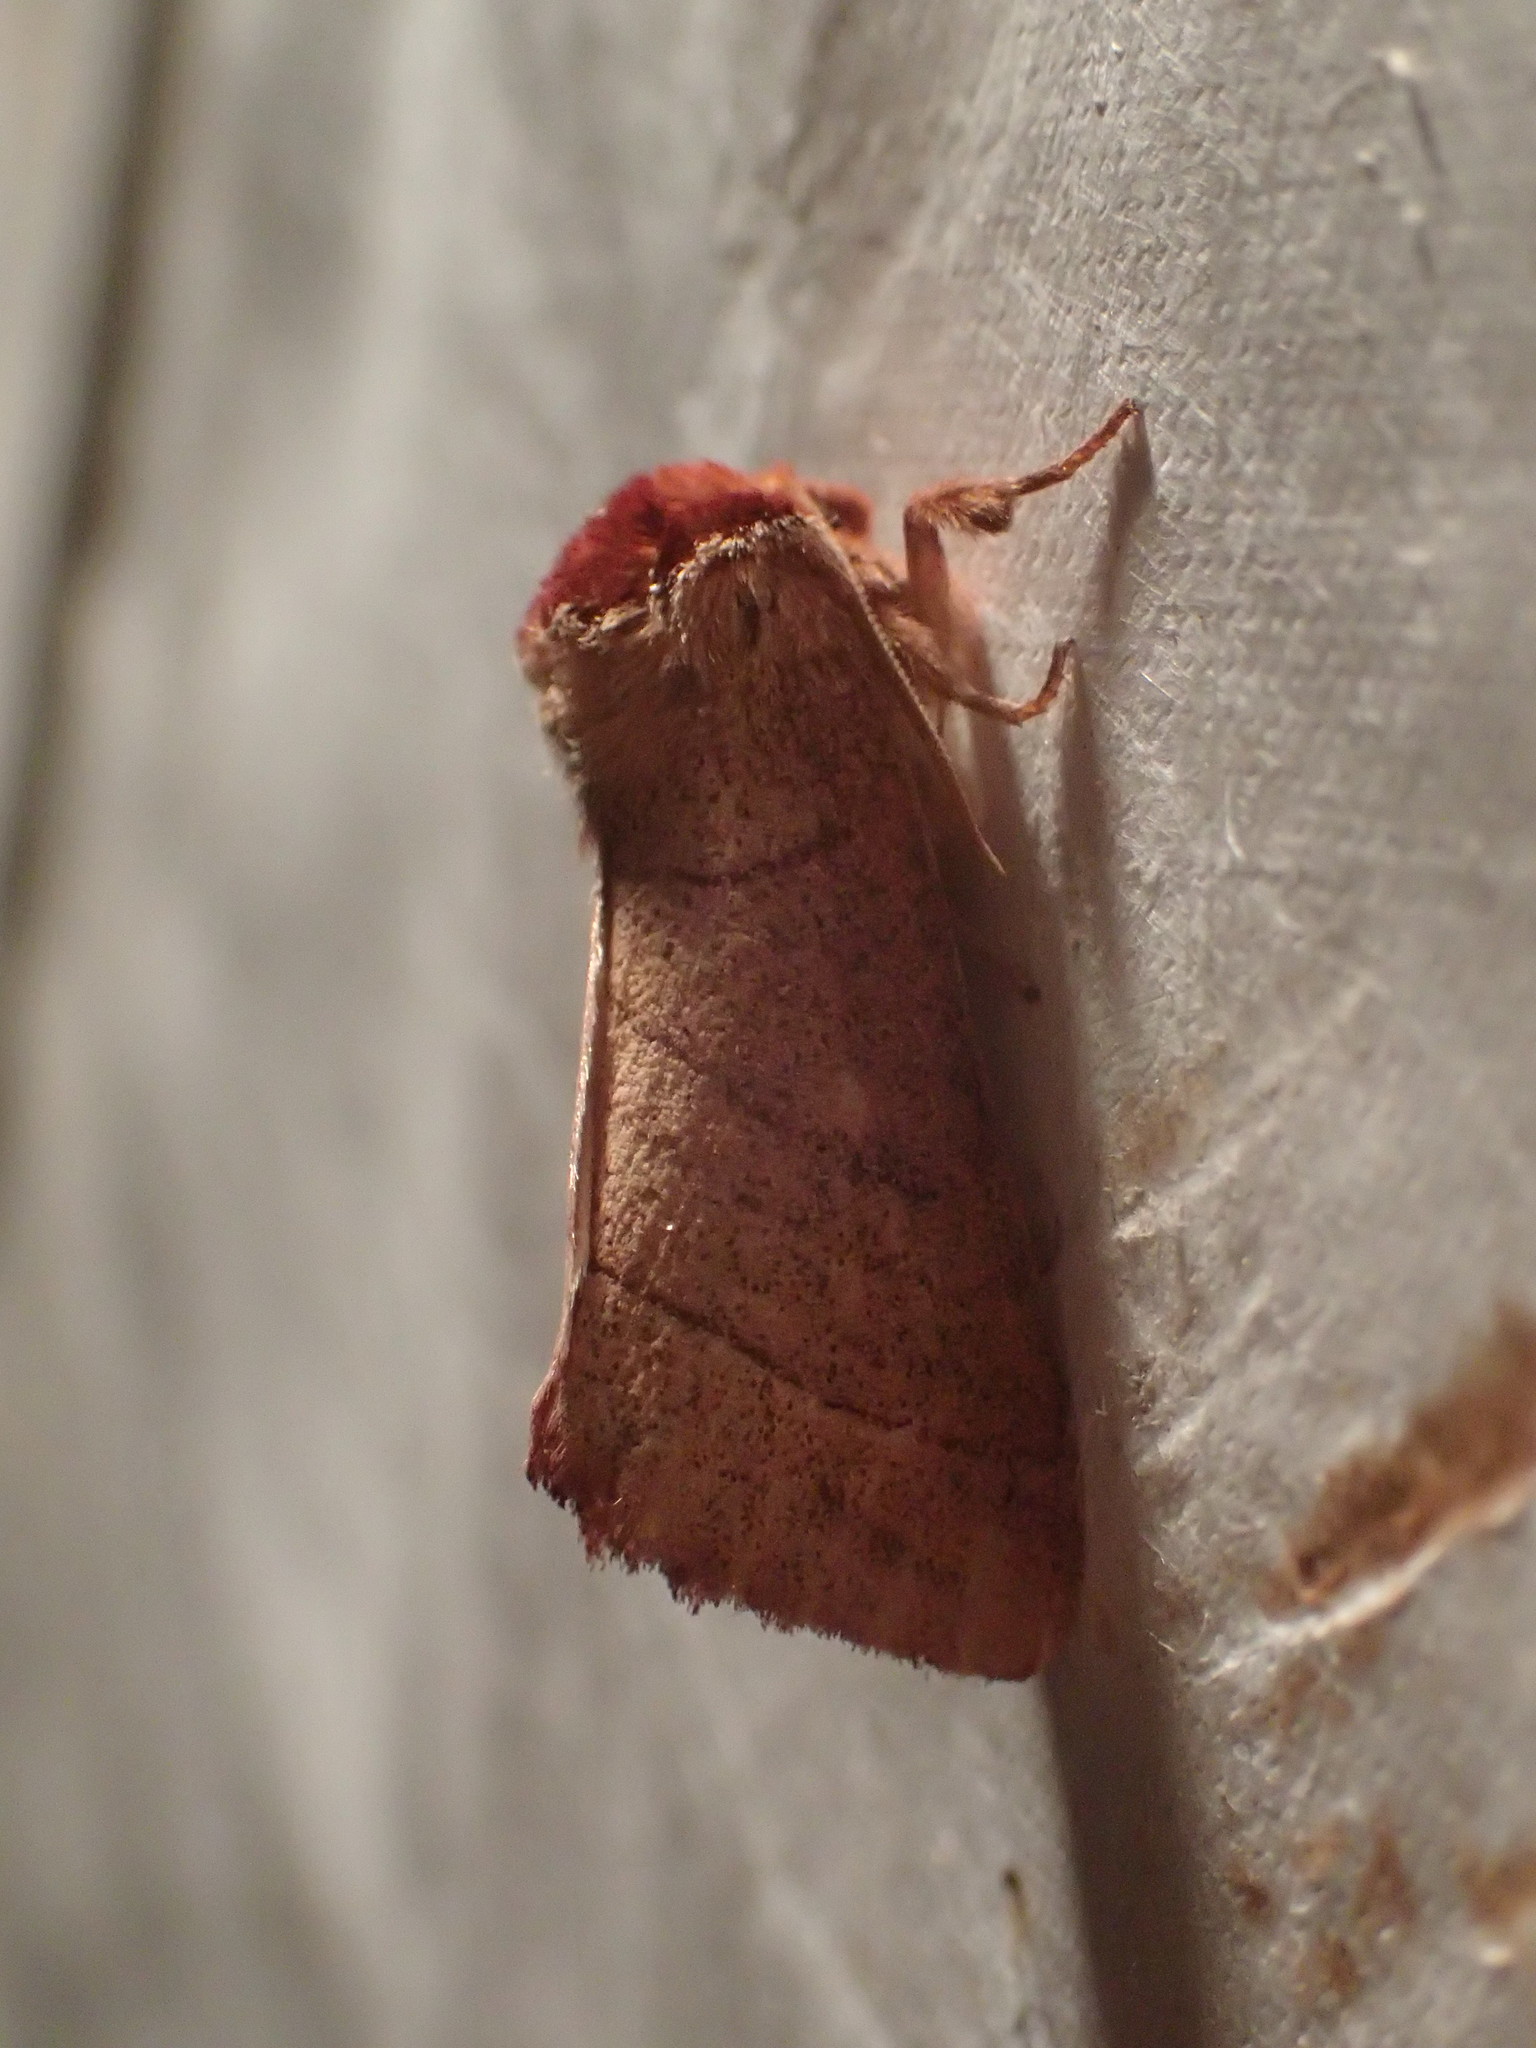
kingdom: Animalia
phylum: Arthropoda
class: Insecta
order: Lepidoptera
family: Notodontidae
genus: Datana
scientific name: Datana ministra
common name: Yellow-necked caterpillar moth
